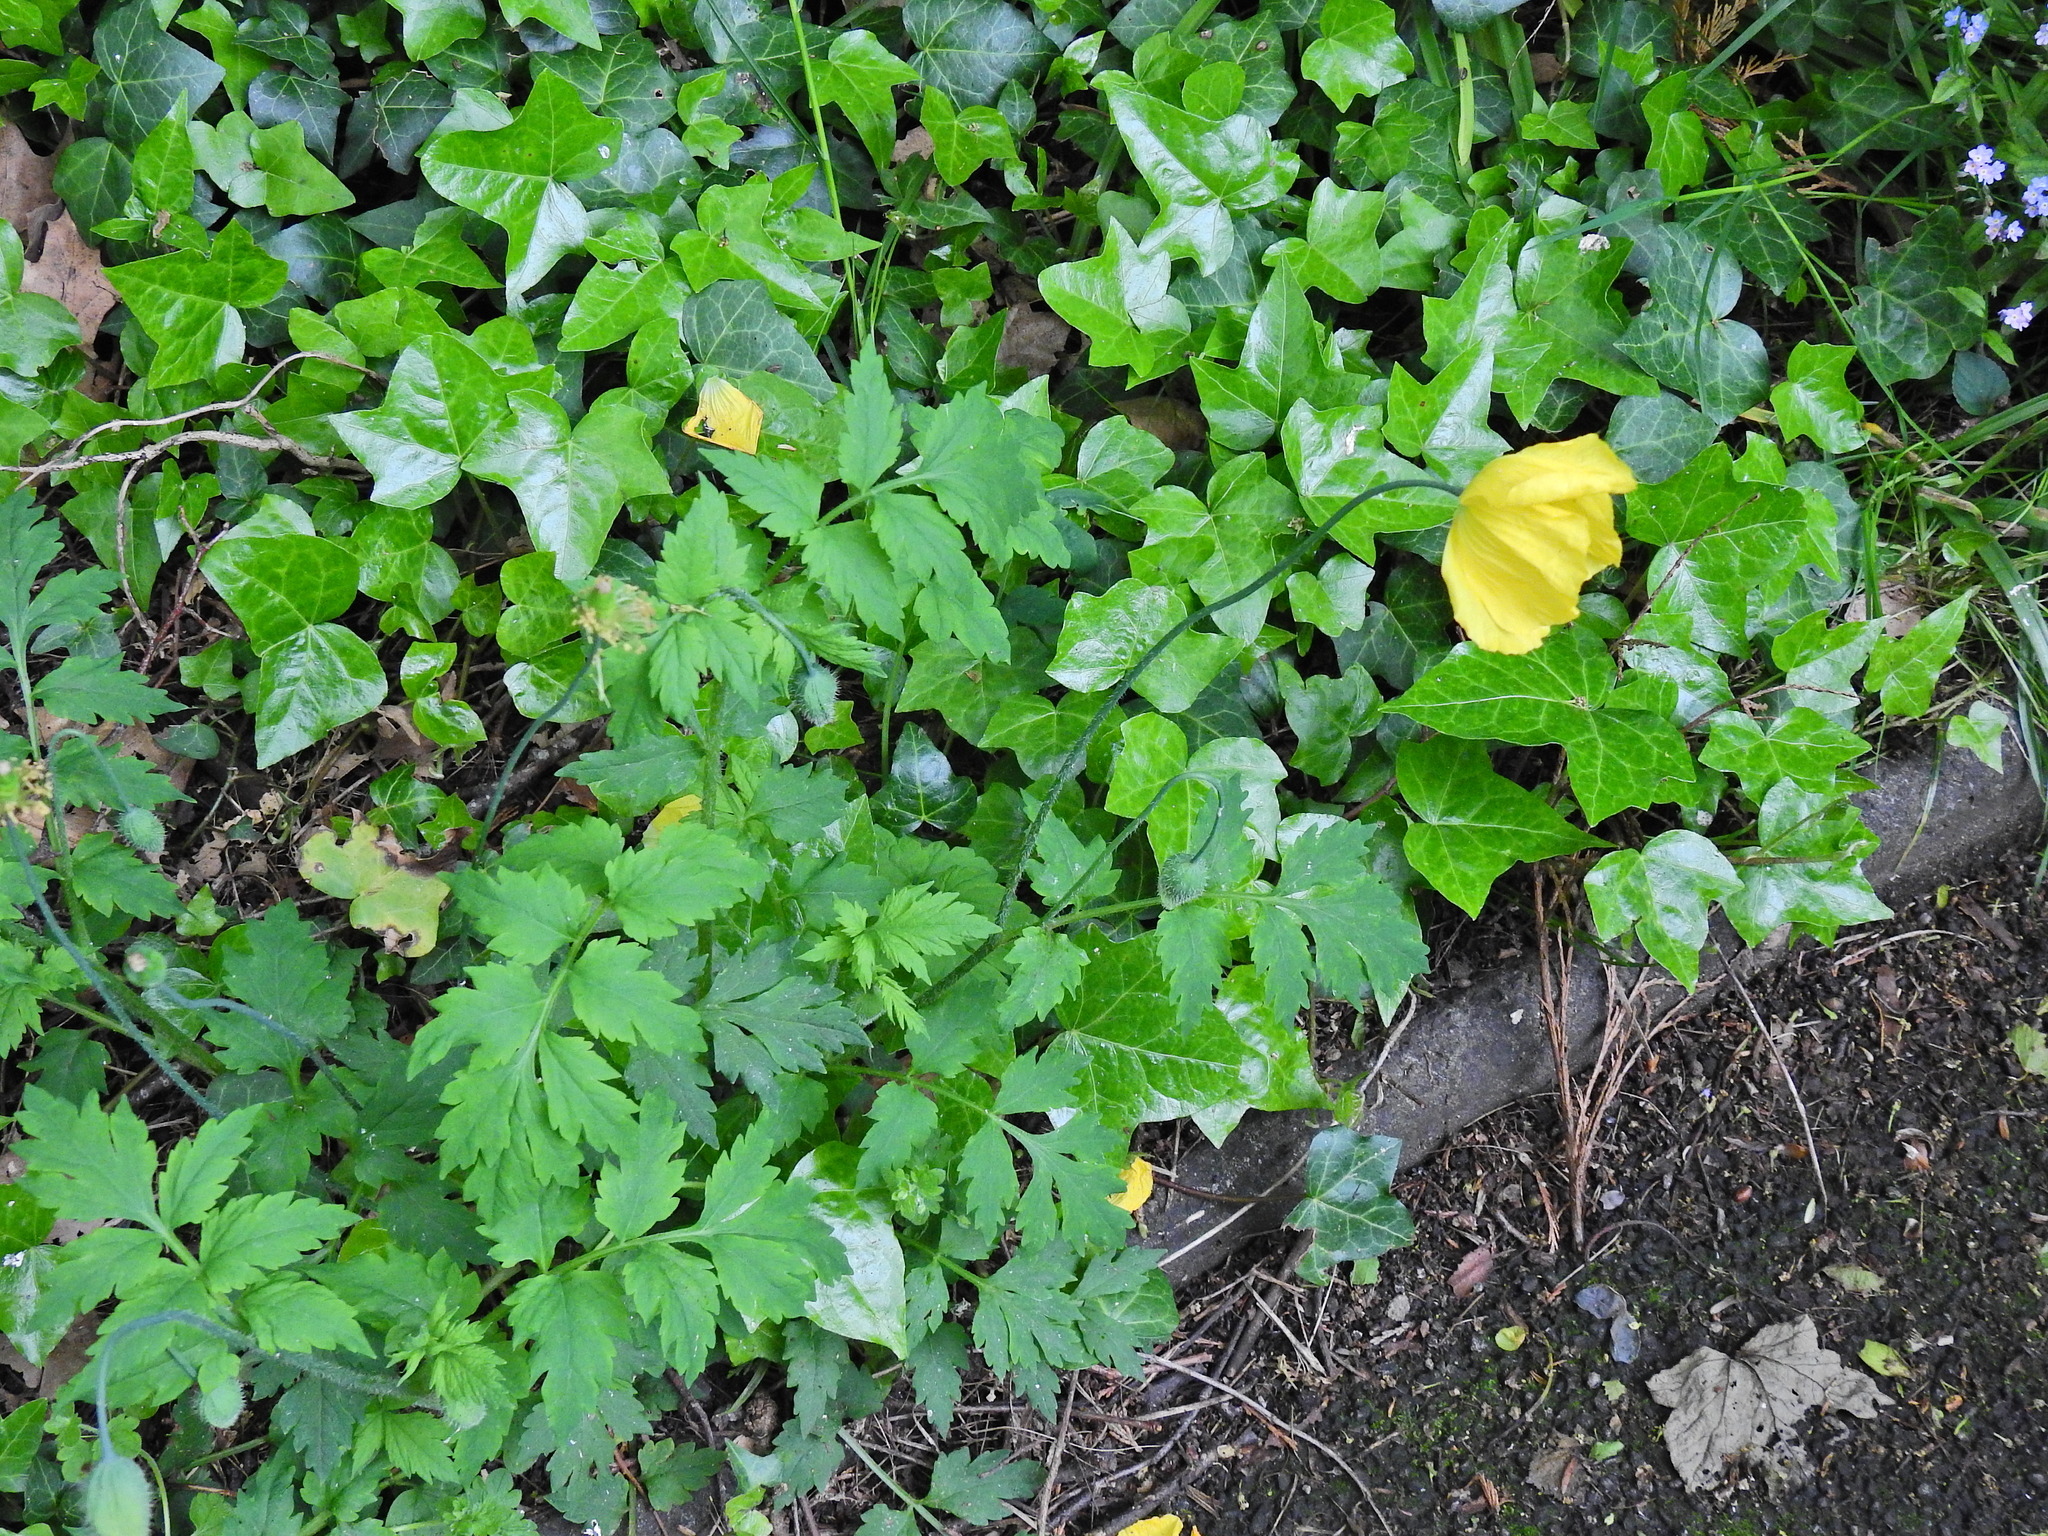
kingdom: Plantae
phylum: Tracheophyta
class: Magnoliopsida
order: Ranunculales
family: Papaveraceae
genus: Papaver
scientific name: Papaver cambricum
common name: Poppy
